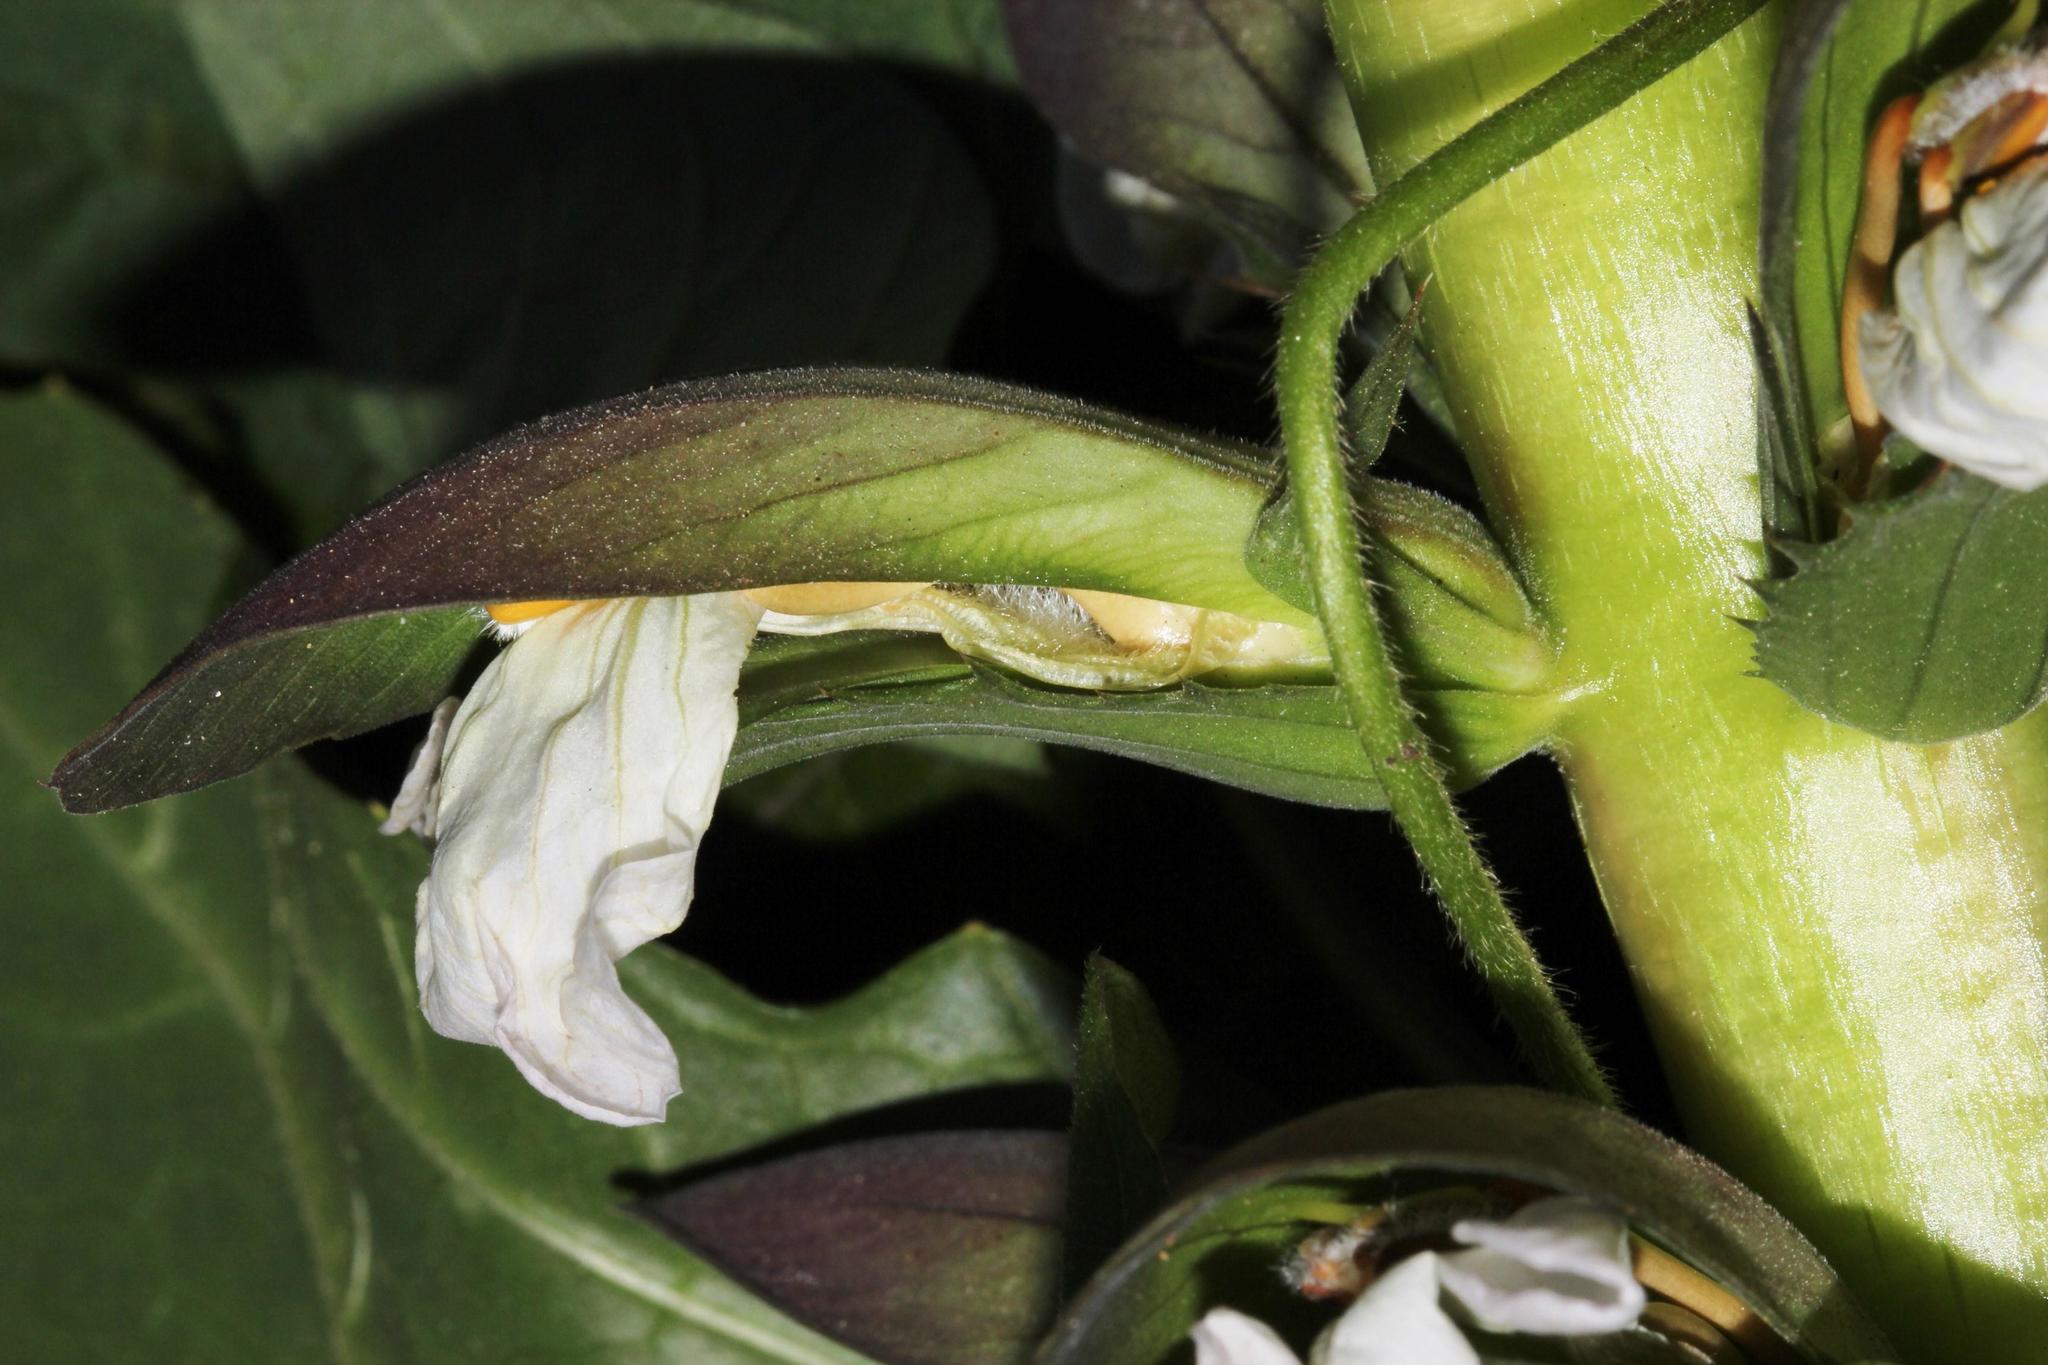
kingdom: Plantae
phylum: Tracheophyta
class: Magnoliopsida
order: Lamiales
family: Acanthaceae
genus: Acanthus
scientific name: Acanthus mollis
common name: Bear's-breech
